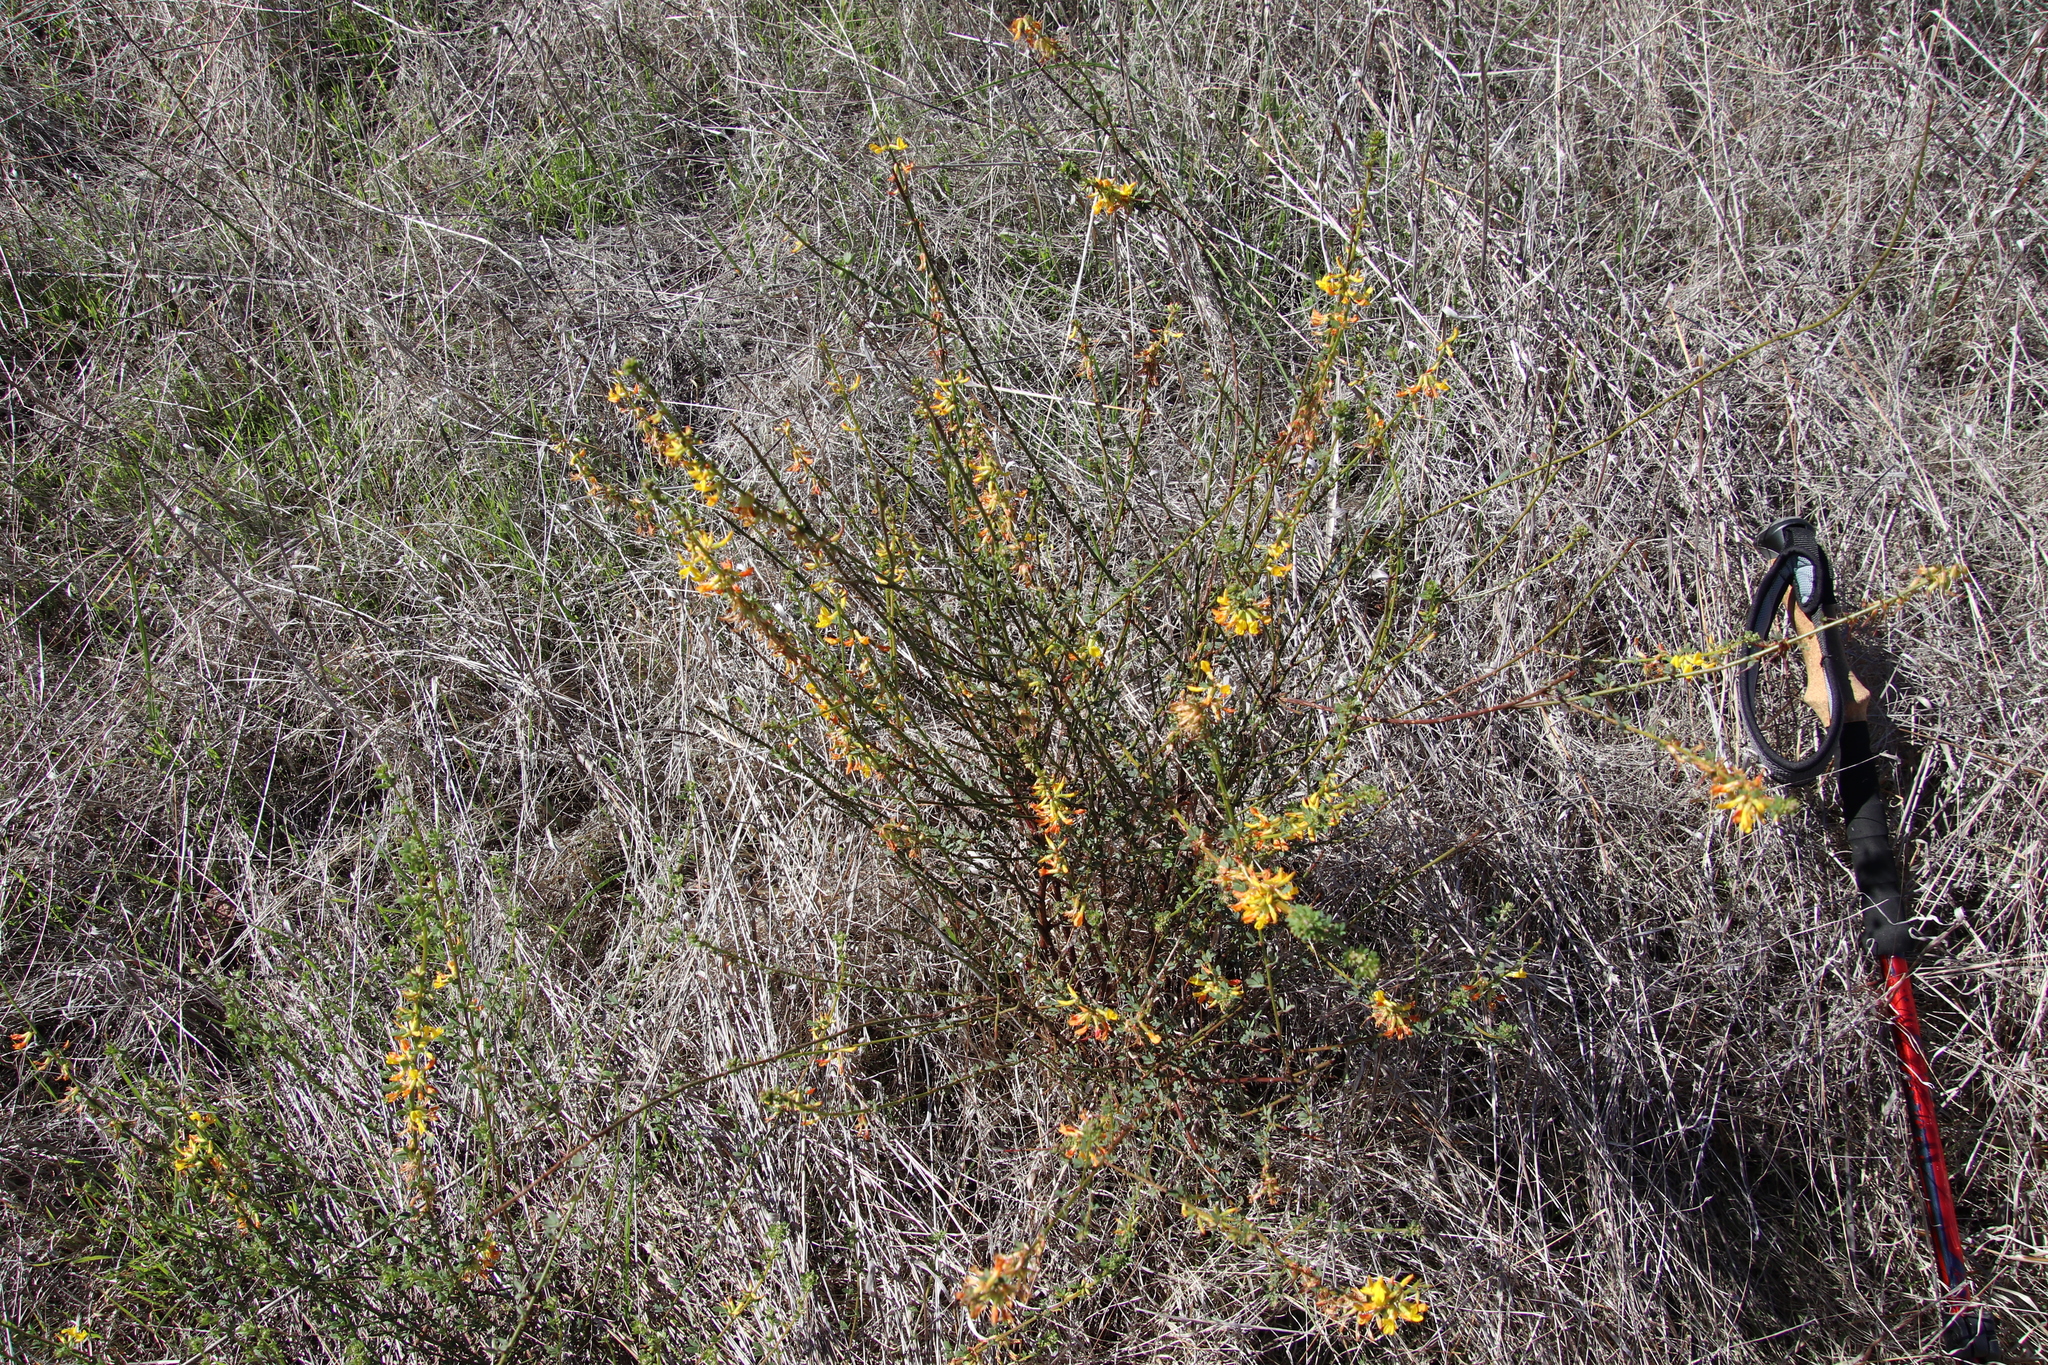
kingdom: Plantae
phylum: Tracheophyta
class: Magnoliopsida
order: Fabales
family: Fabaceae
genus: Acmispon
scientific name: Acmispon glaber
